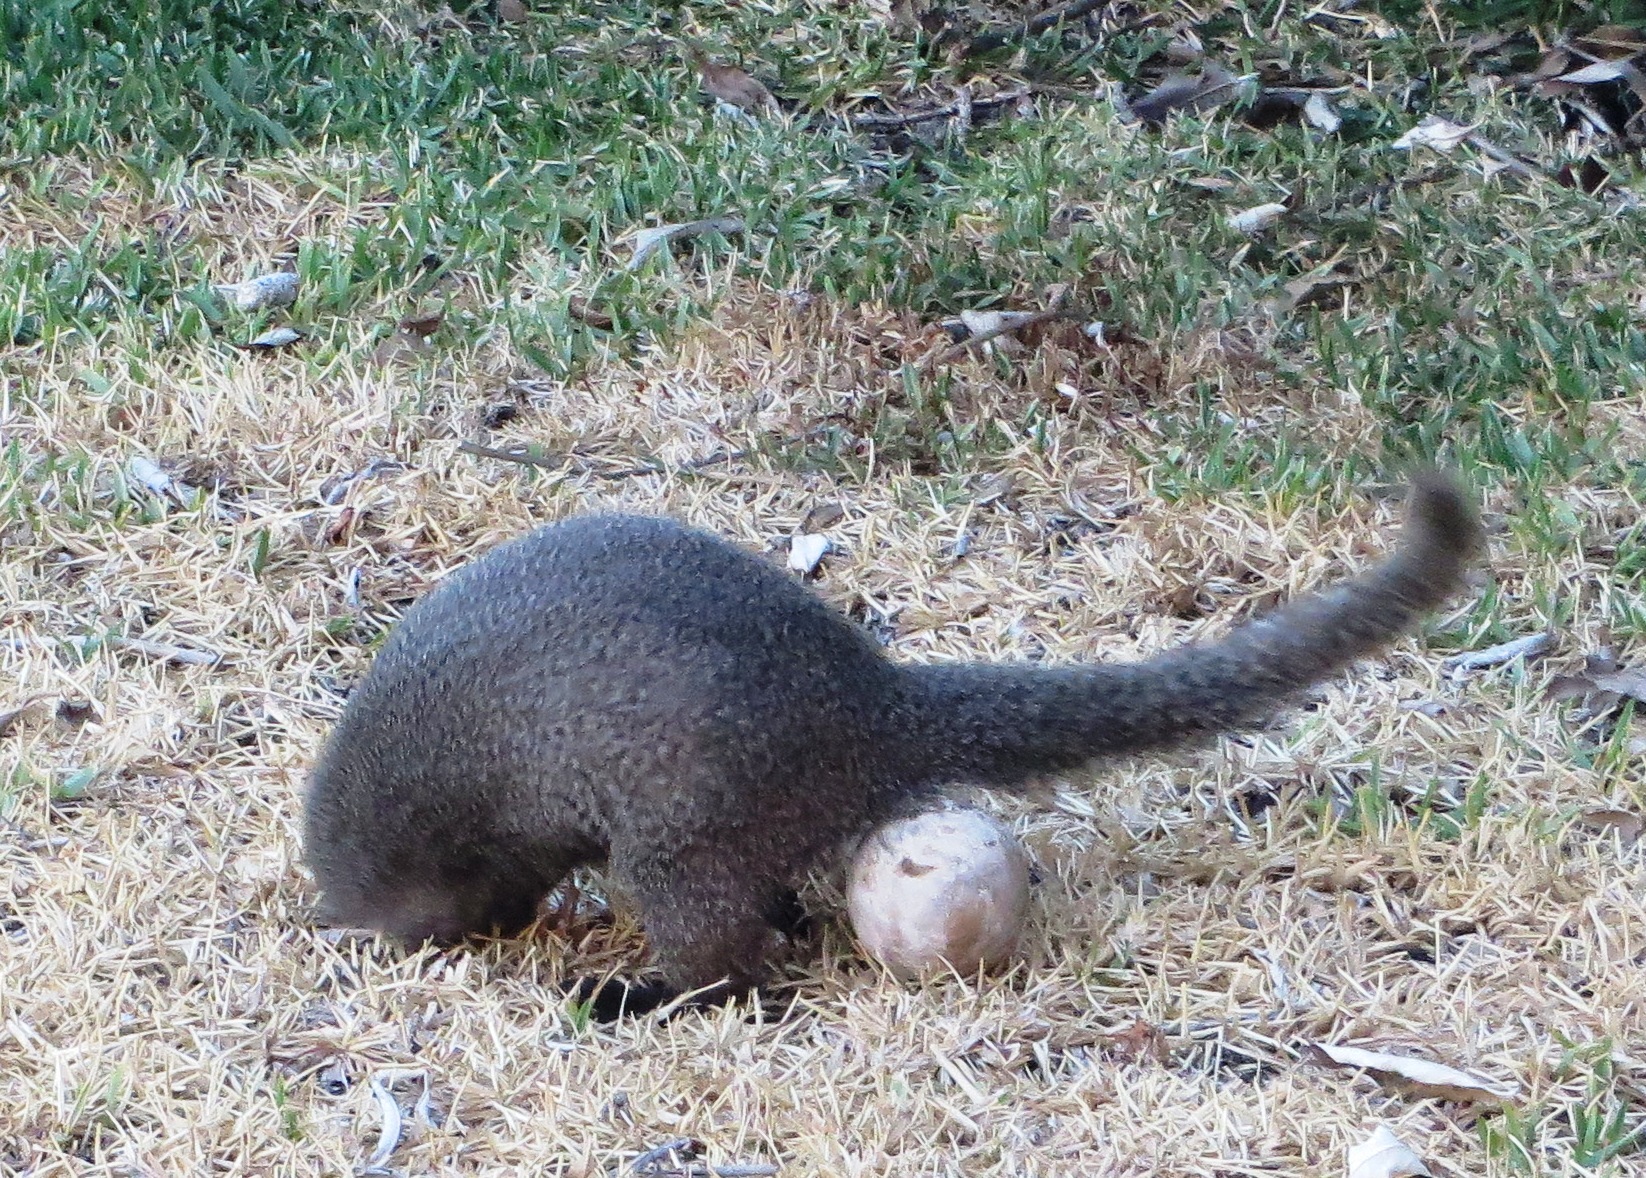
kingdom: Animalia
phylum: Chordata
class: Mammalia
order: Carnivora
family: Herpestidae
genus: Galerella
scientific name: Galerella pulverulenta
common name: Cape gray mongoose
